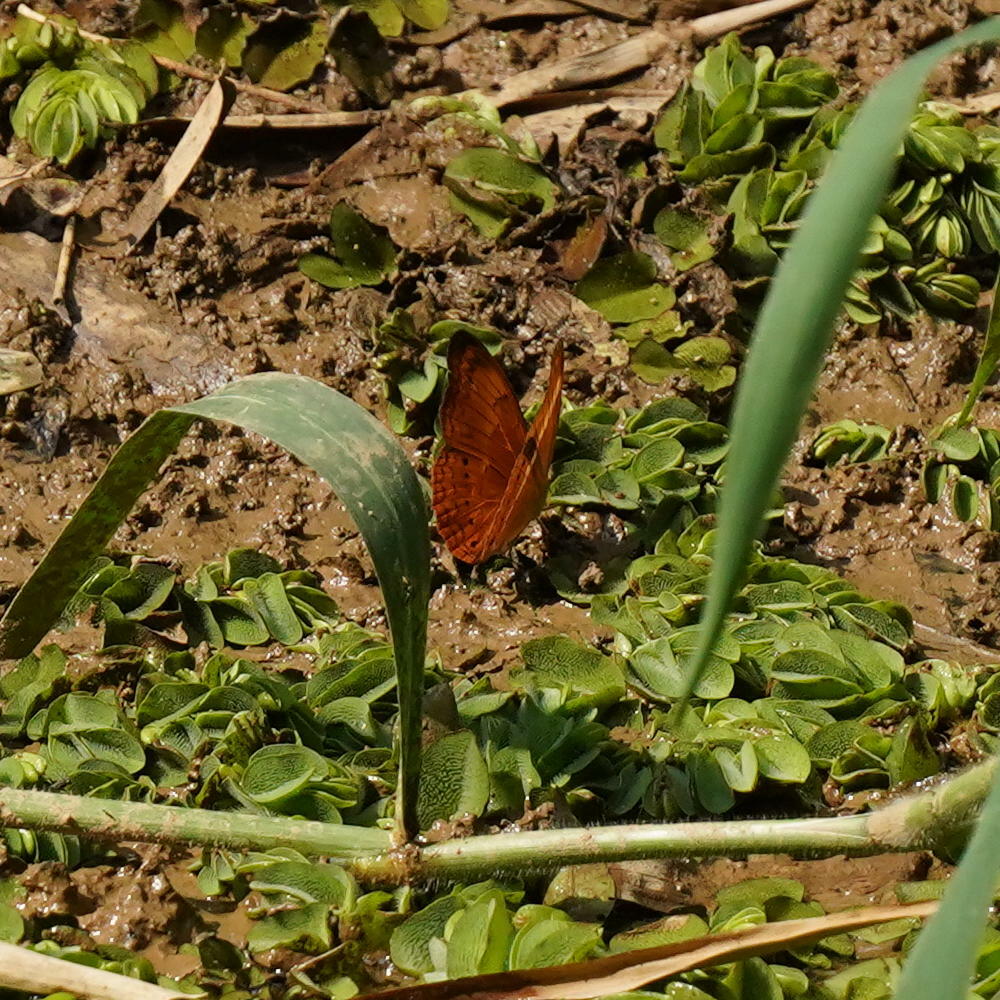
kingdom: Animalia
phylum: Arthropoda
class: Insecta
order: Lepidoptera
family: Nymphalidae
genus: Cirrochroa
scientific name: Cirrochroa thais
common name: Tamil yeoman
